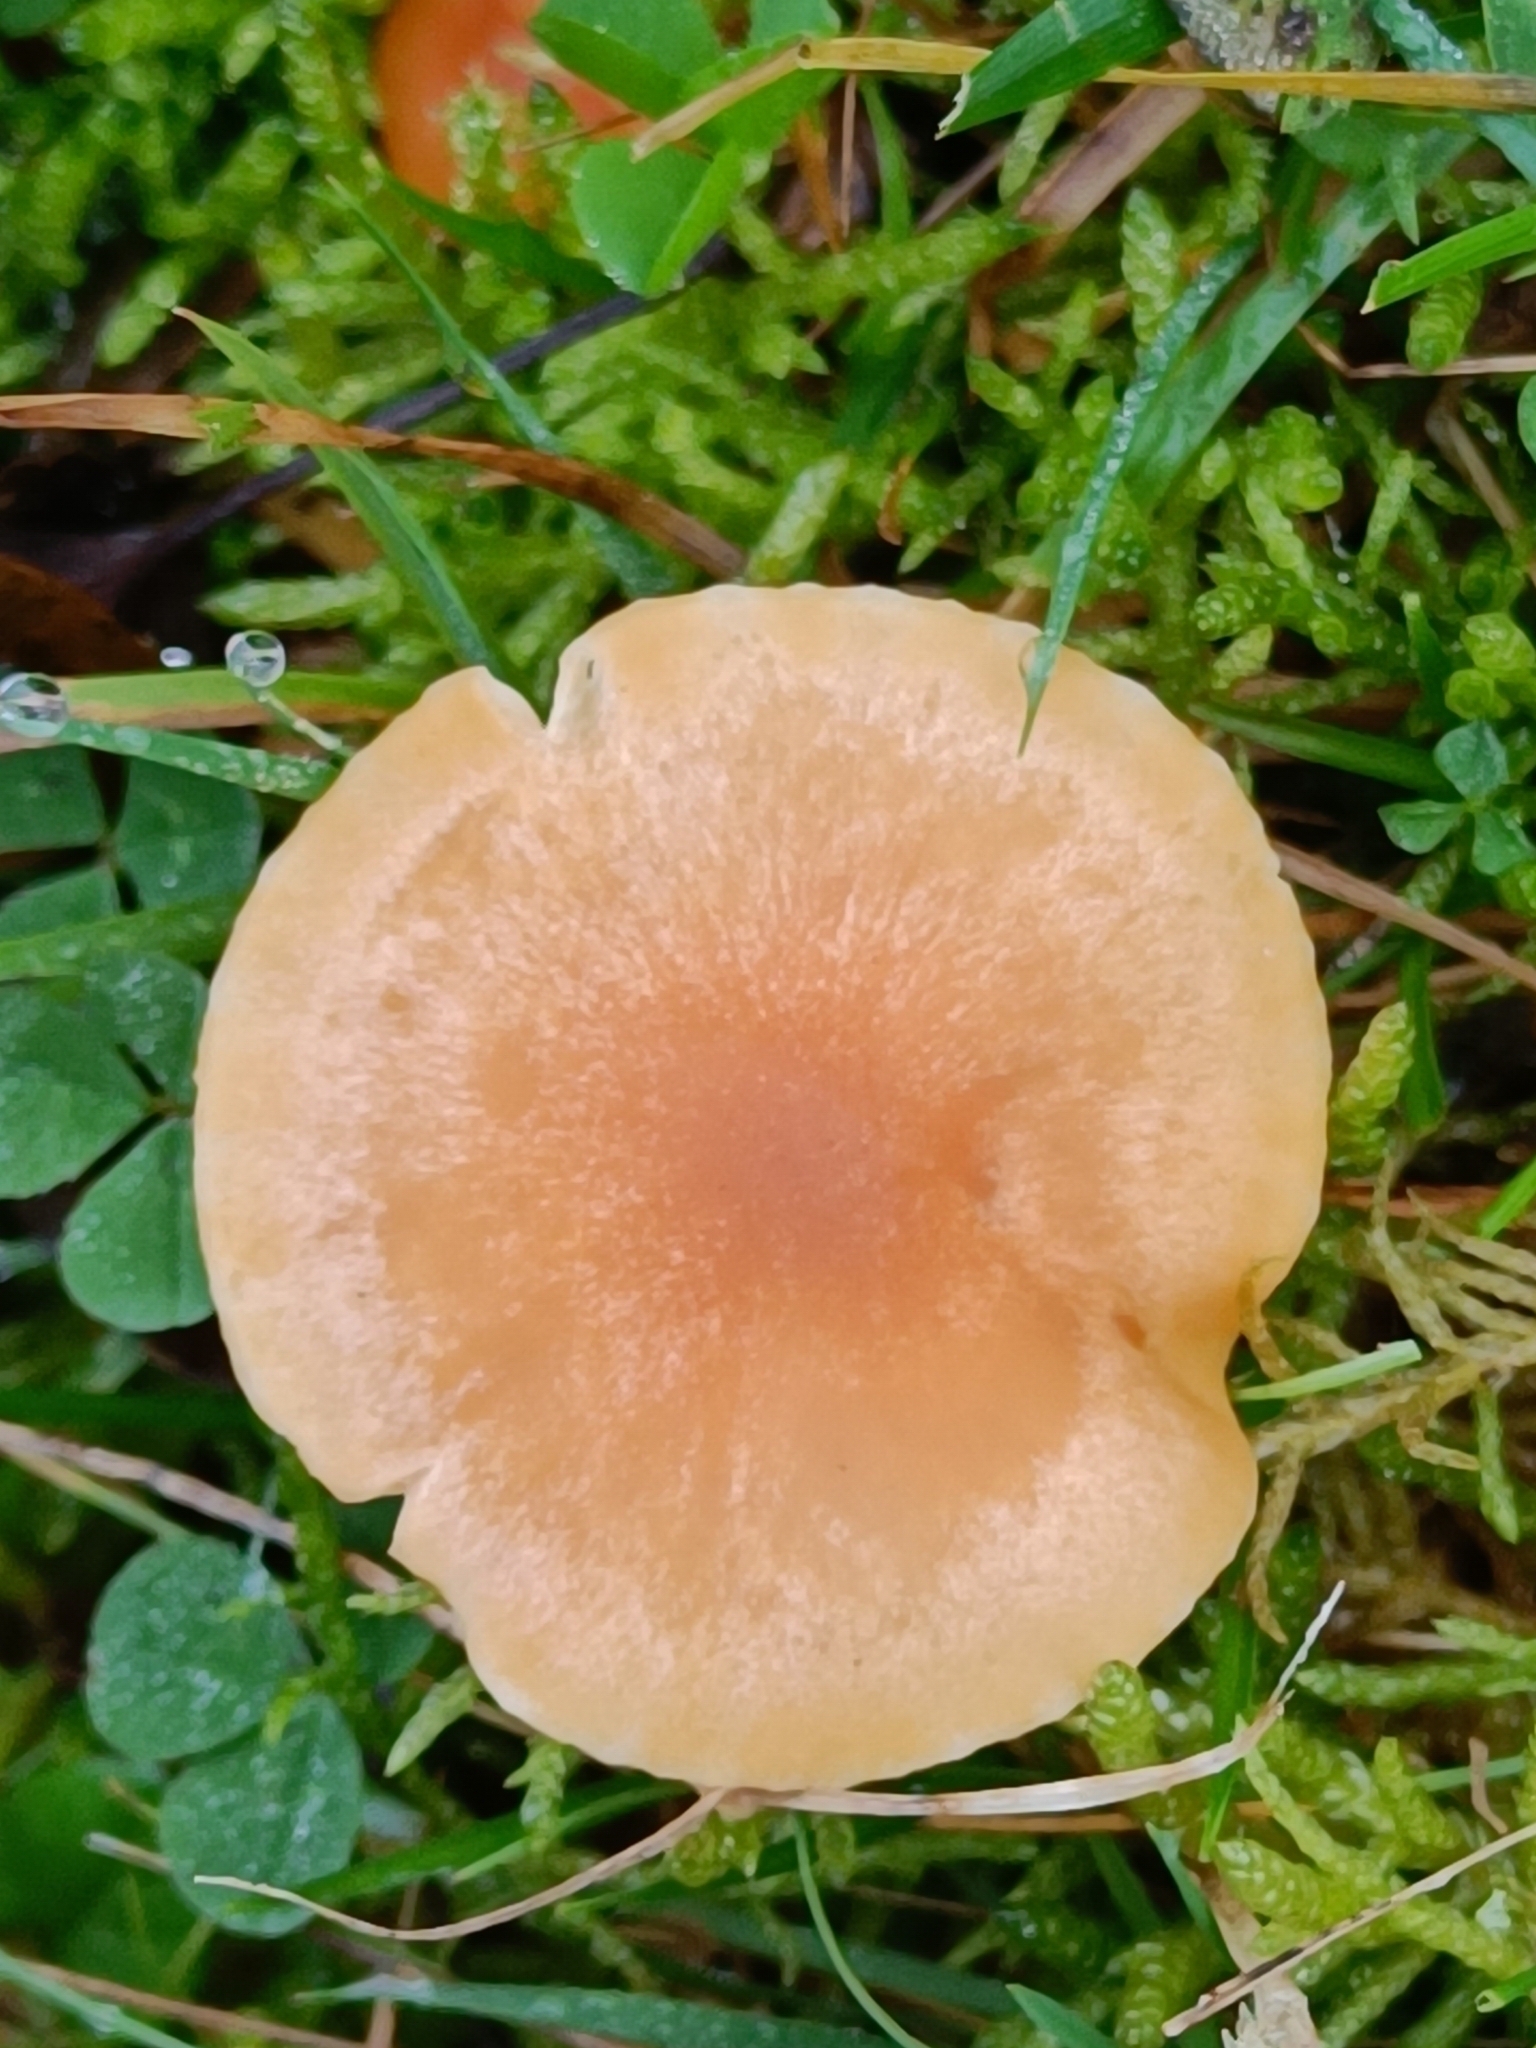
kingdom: Fungi
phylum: Basidiomycota
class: Agaricomycetes
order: Agaricales
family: Hygrophoraceae
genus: Cuphophyllus
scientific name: Cuphophyllus pratensis
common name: Meadow waxcap
